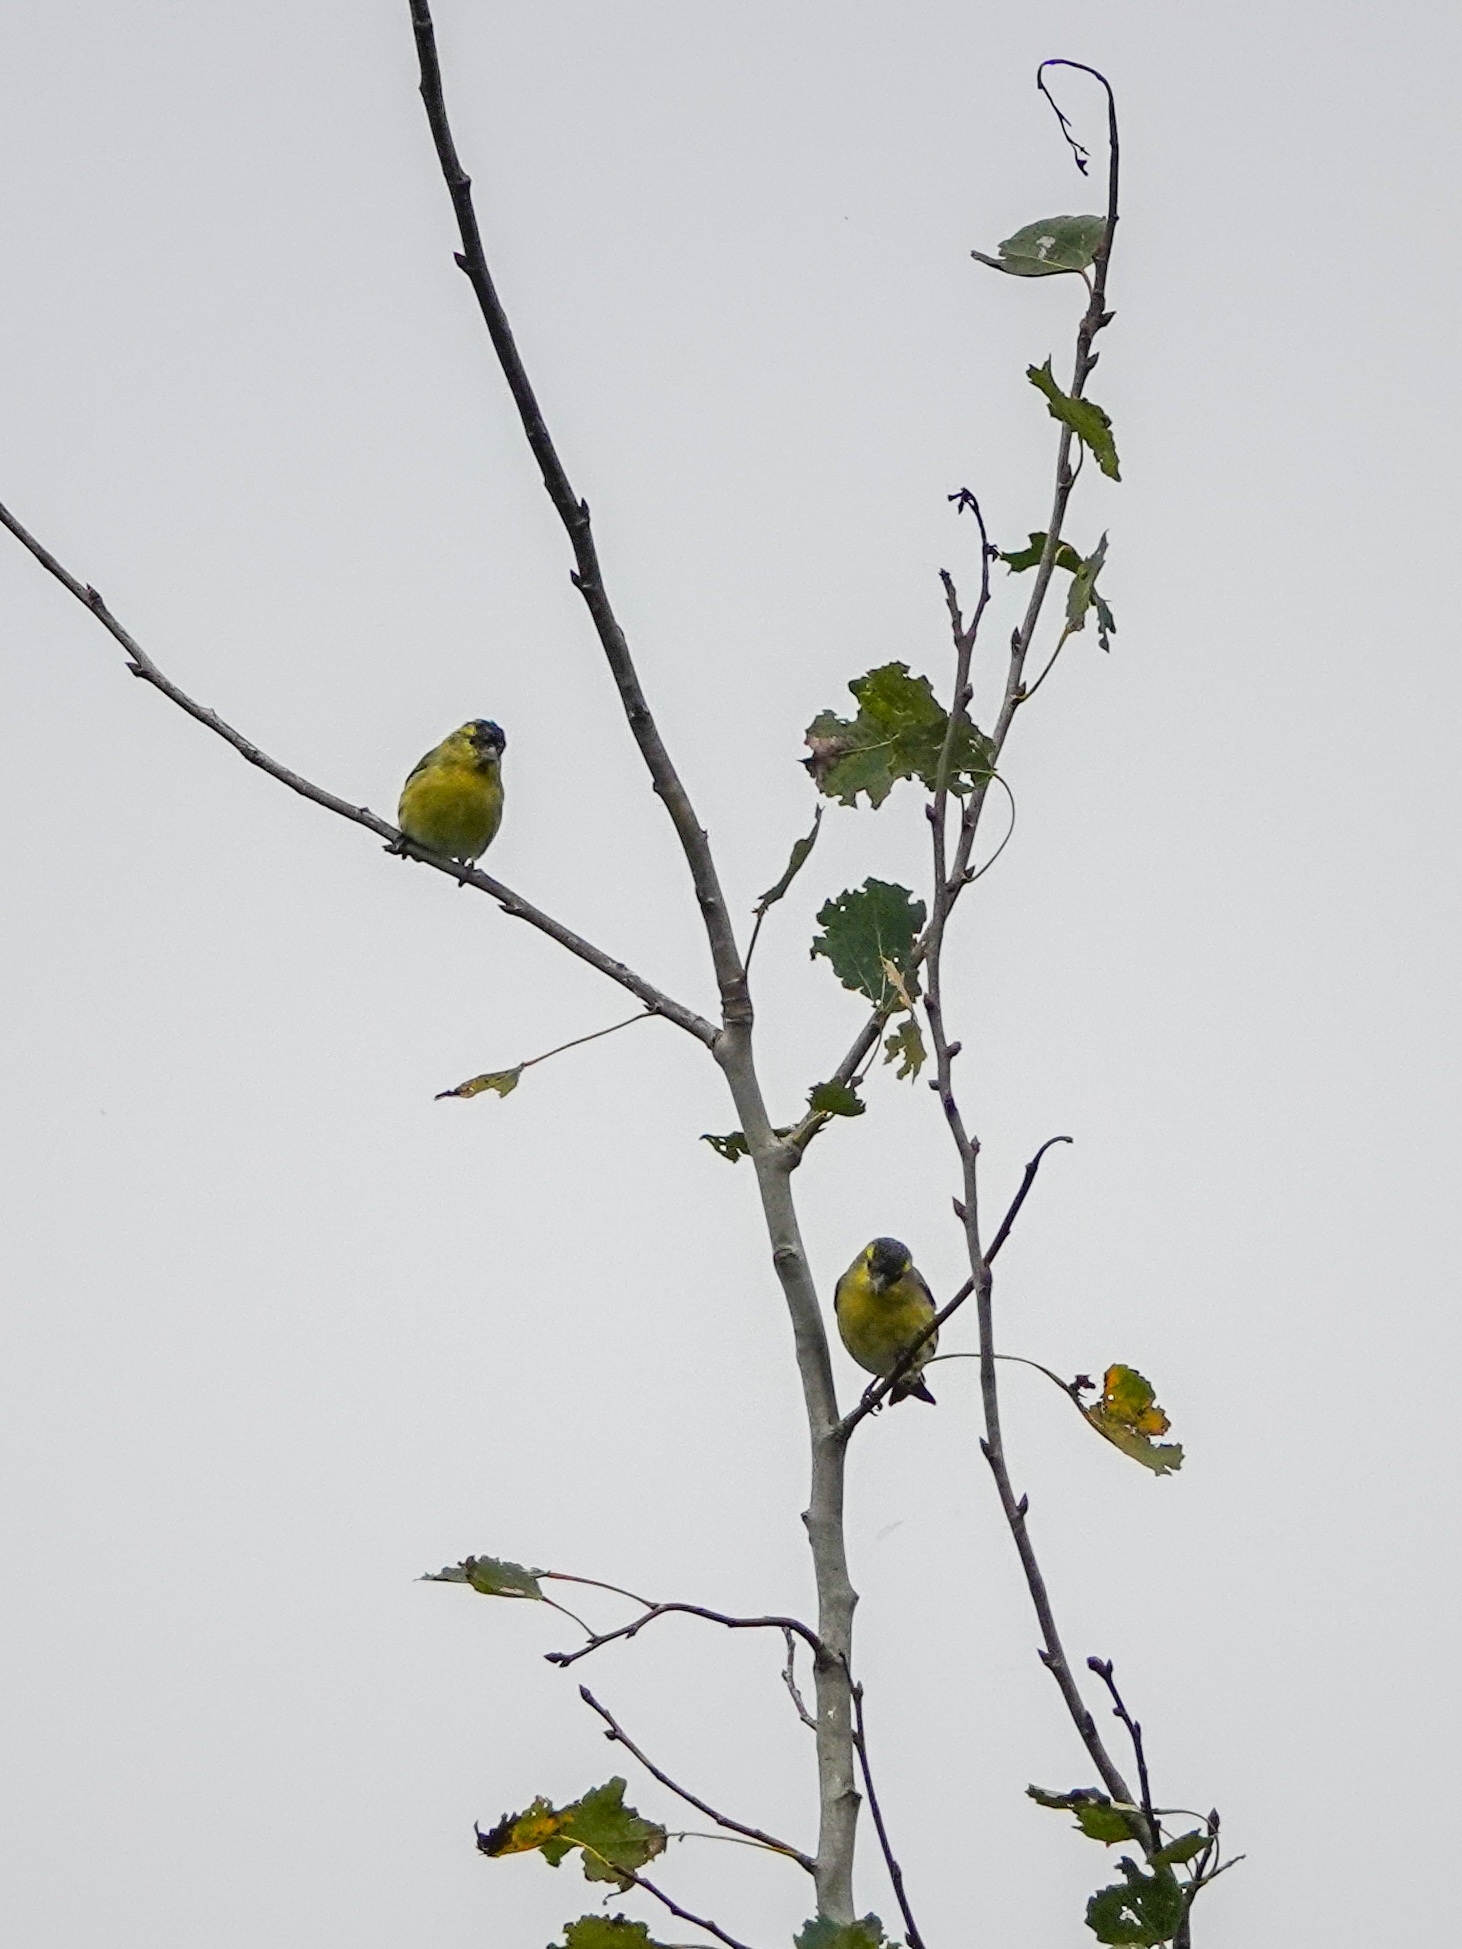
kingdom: Animalia
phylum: Chordata
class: Aves
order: Passeriformes
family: Fringillidae
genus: Spinus
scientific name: Spinus spinus
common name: Eurasian siskin
